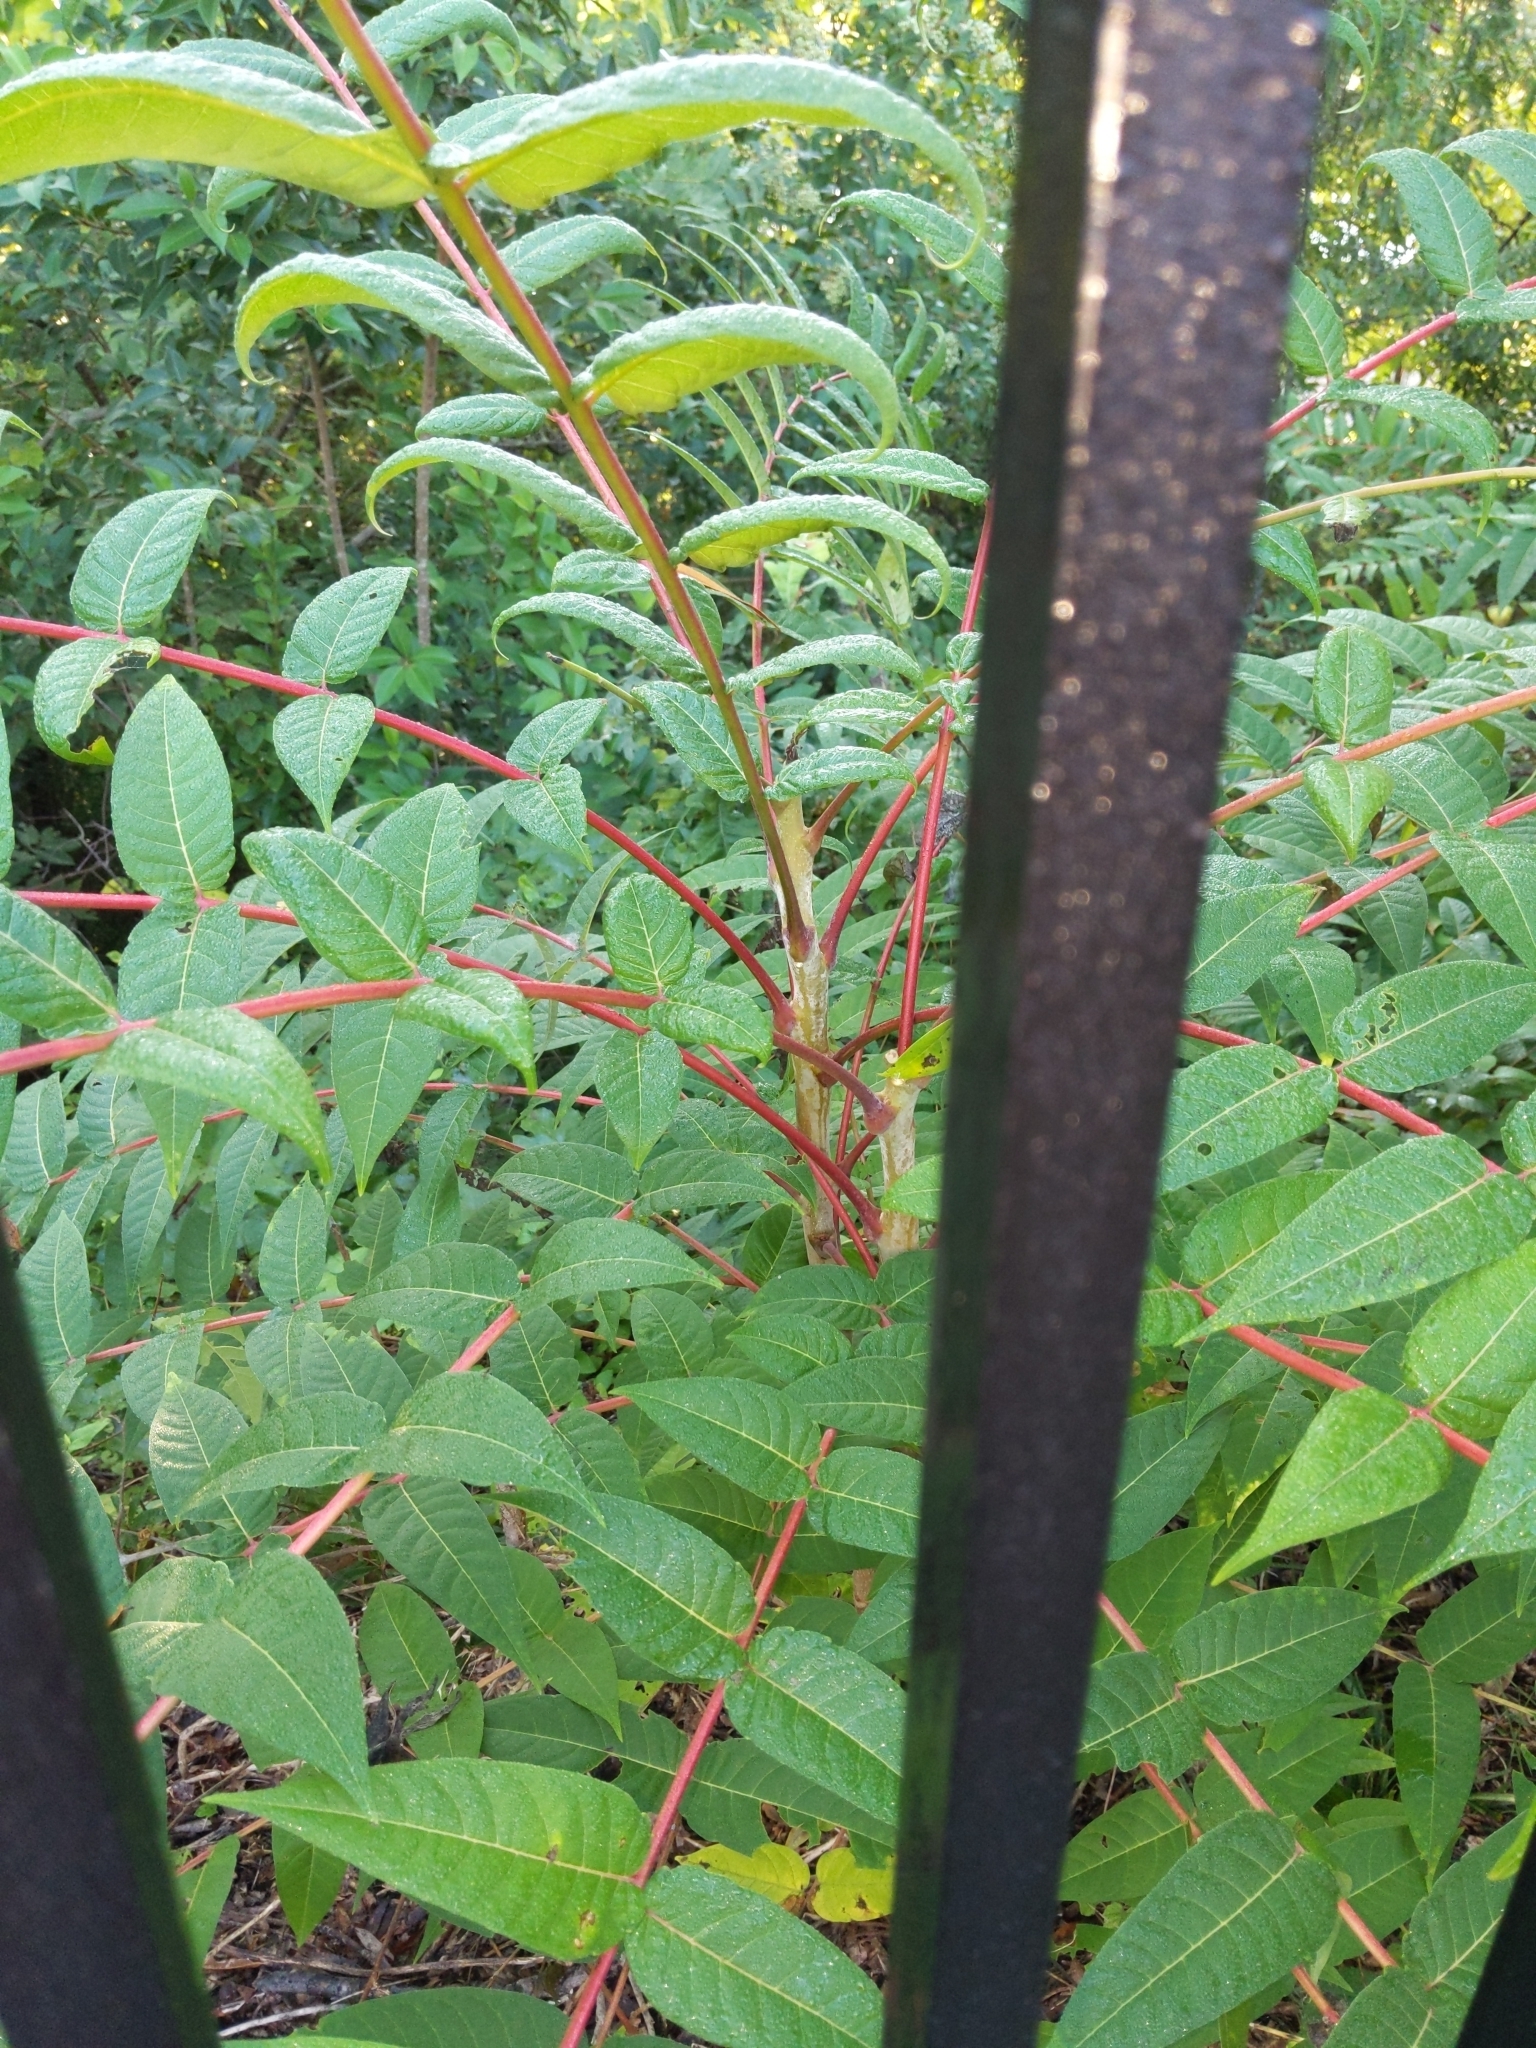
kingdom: Plantae
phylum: Tracheophyta
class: Magnoliopsida
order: Sapindales
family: Simaroubaceae
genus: Ailanthus
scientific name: Ailanthus altissima
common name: Tree-of-heaven
